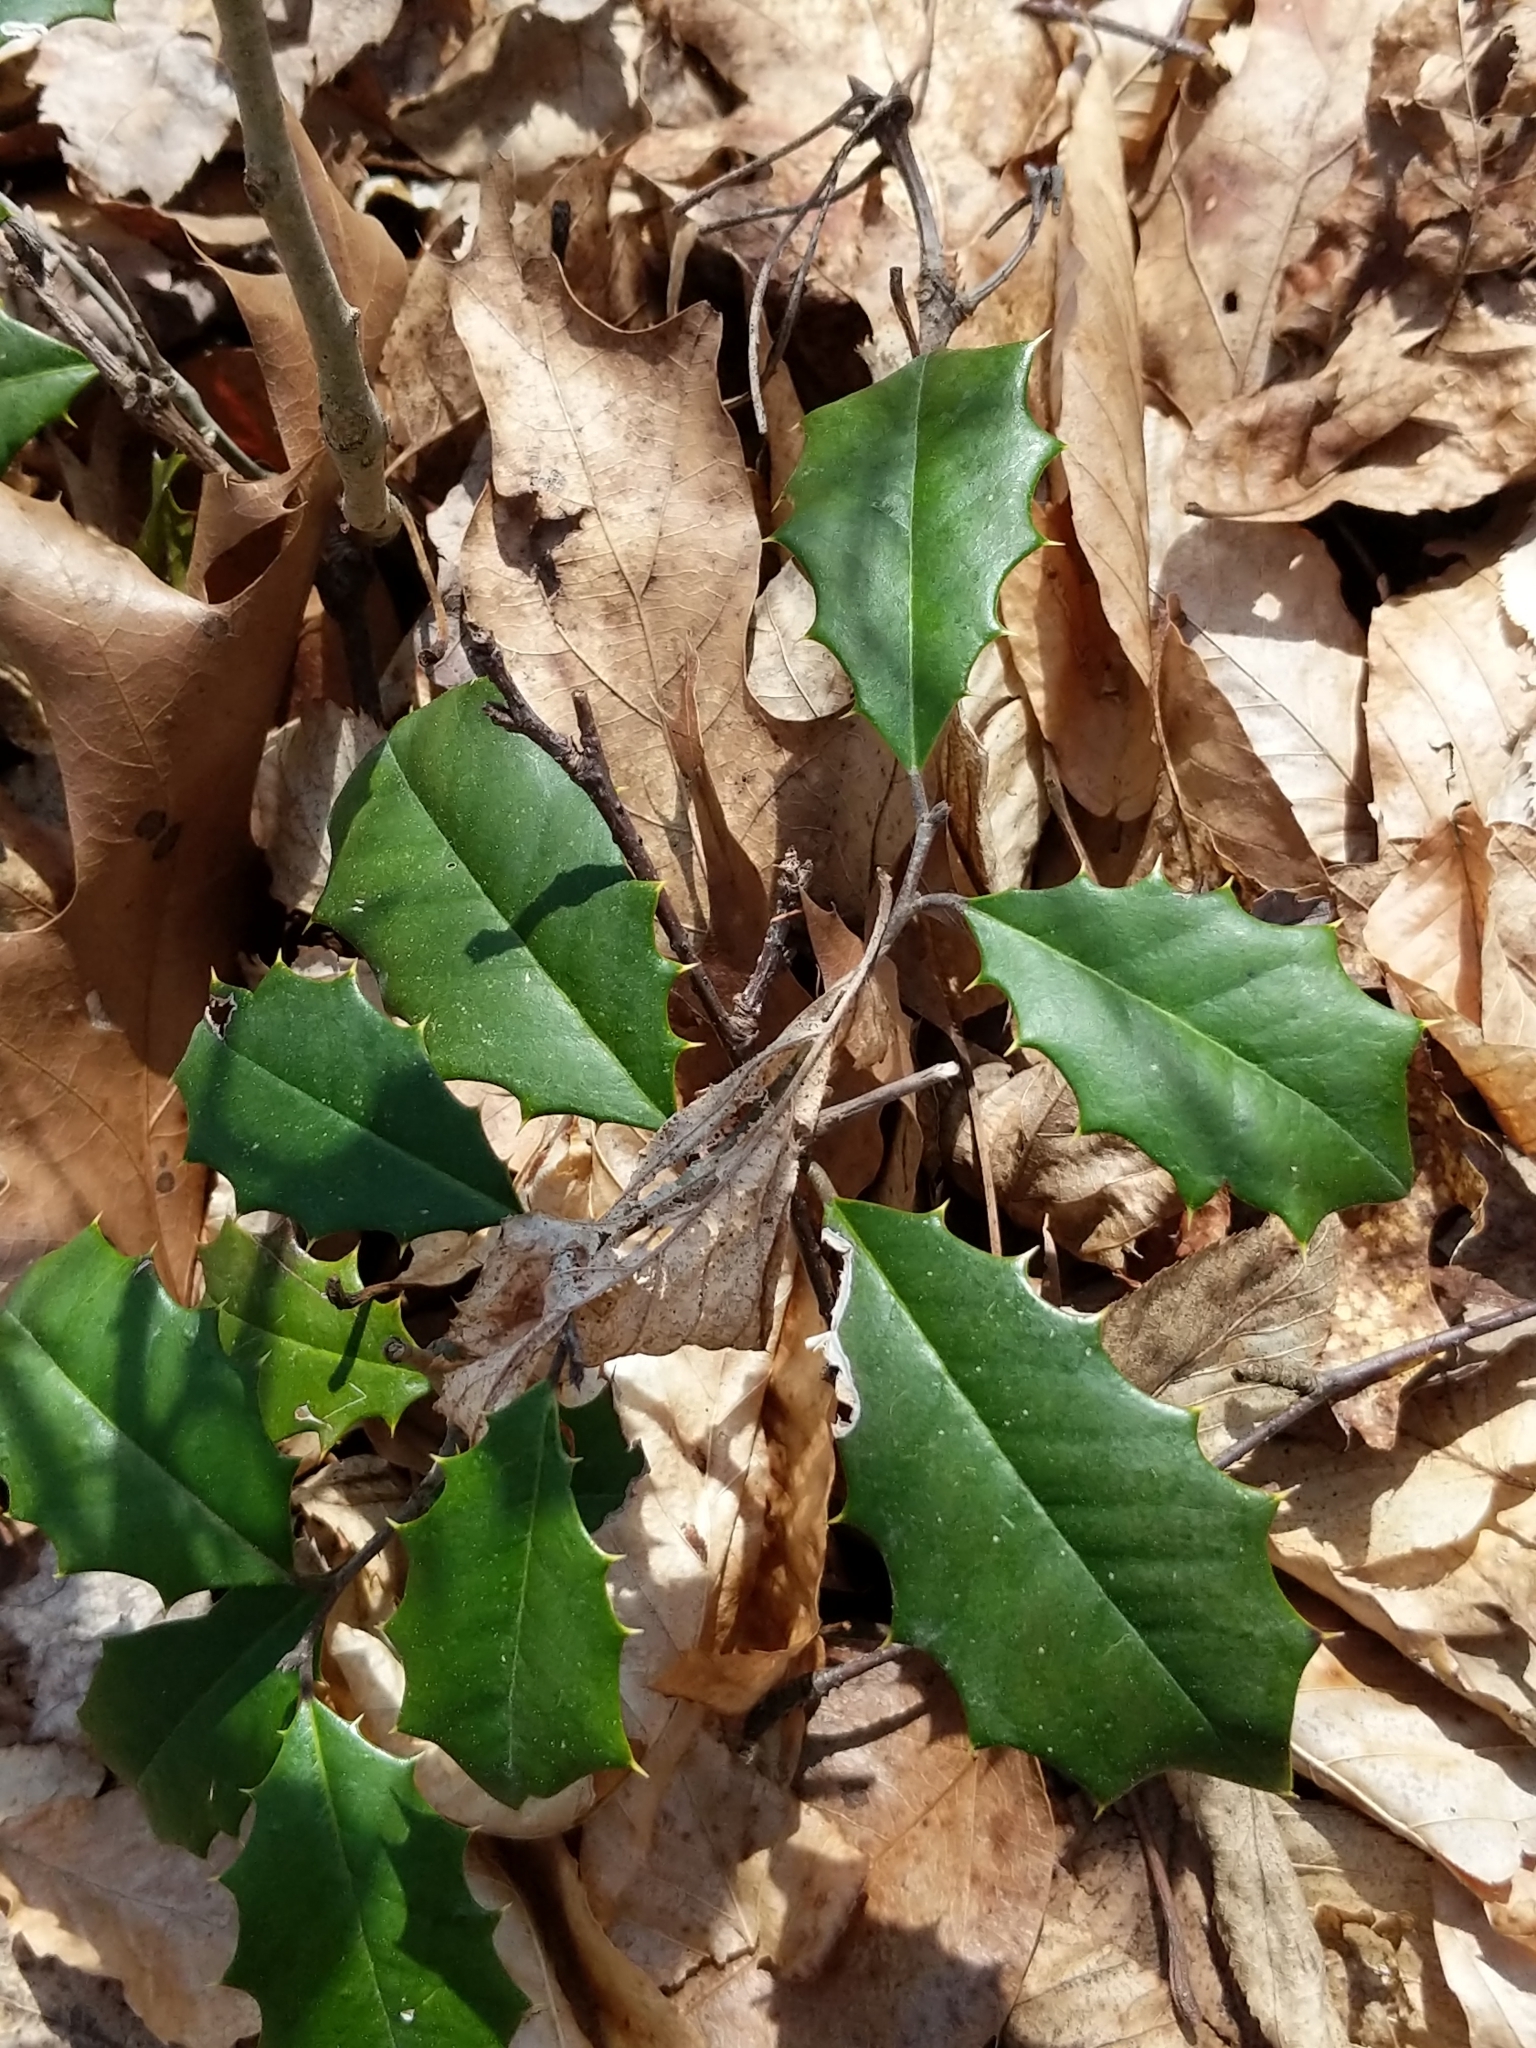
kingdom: Plantae
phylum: Tracheophyta
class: Magnoliopsida
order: Aquifoliales
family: Aquifoliaceae
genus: Ilex
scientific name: Ilex opaca
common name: American holly
